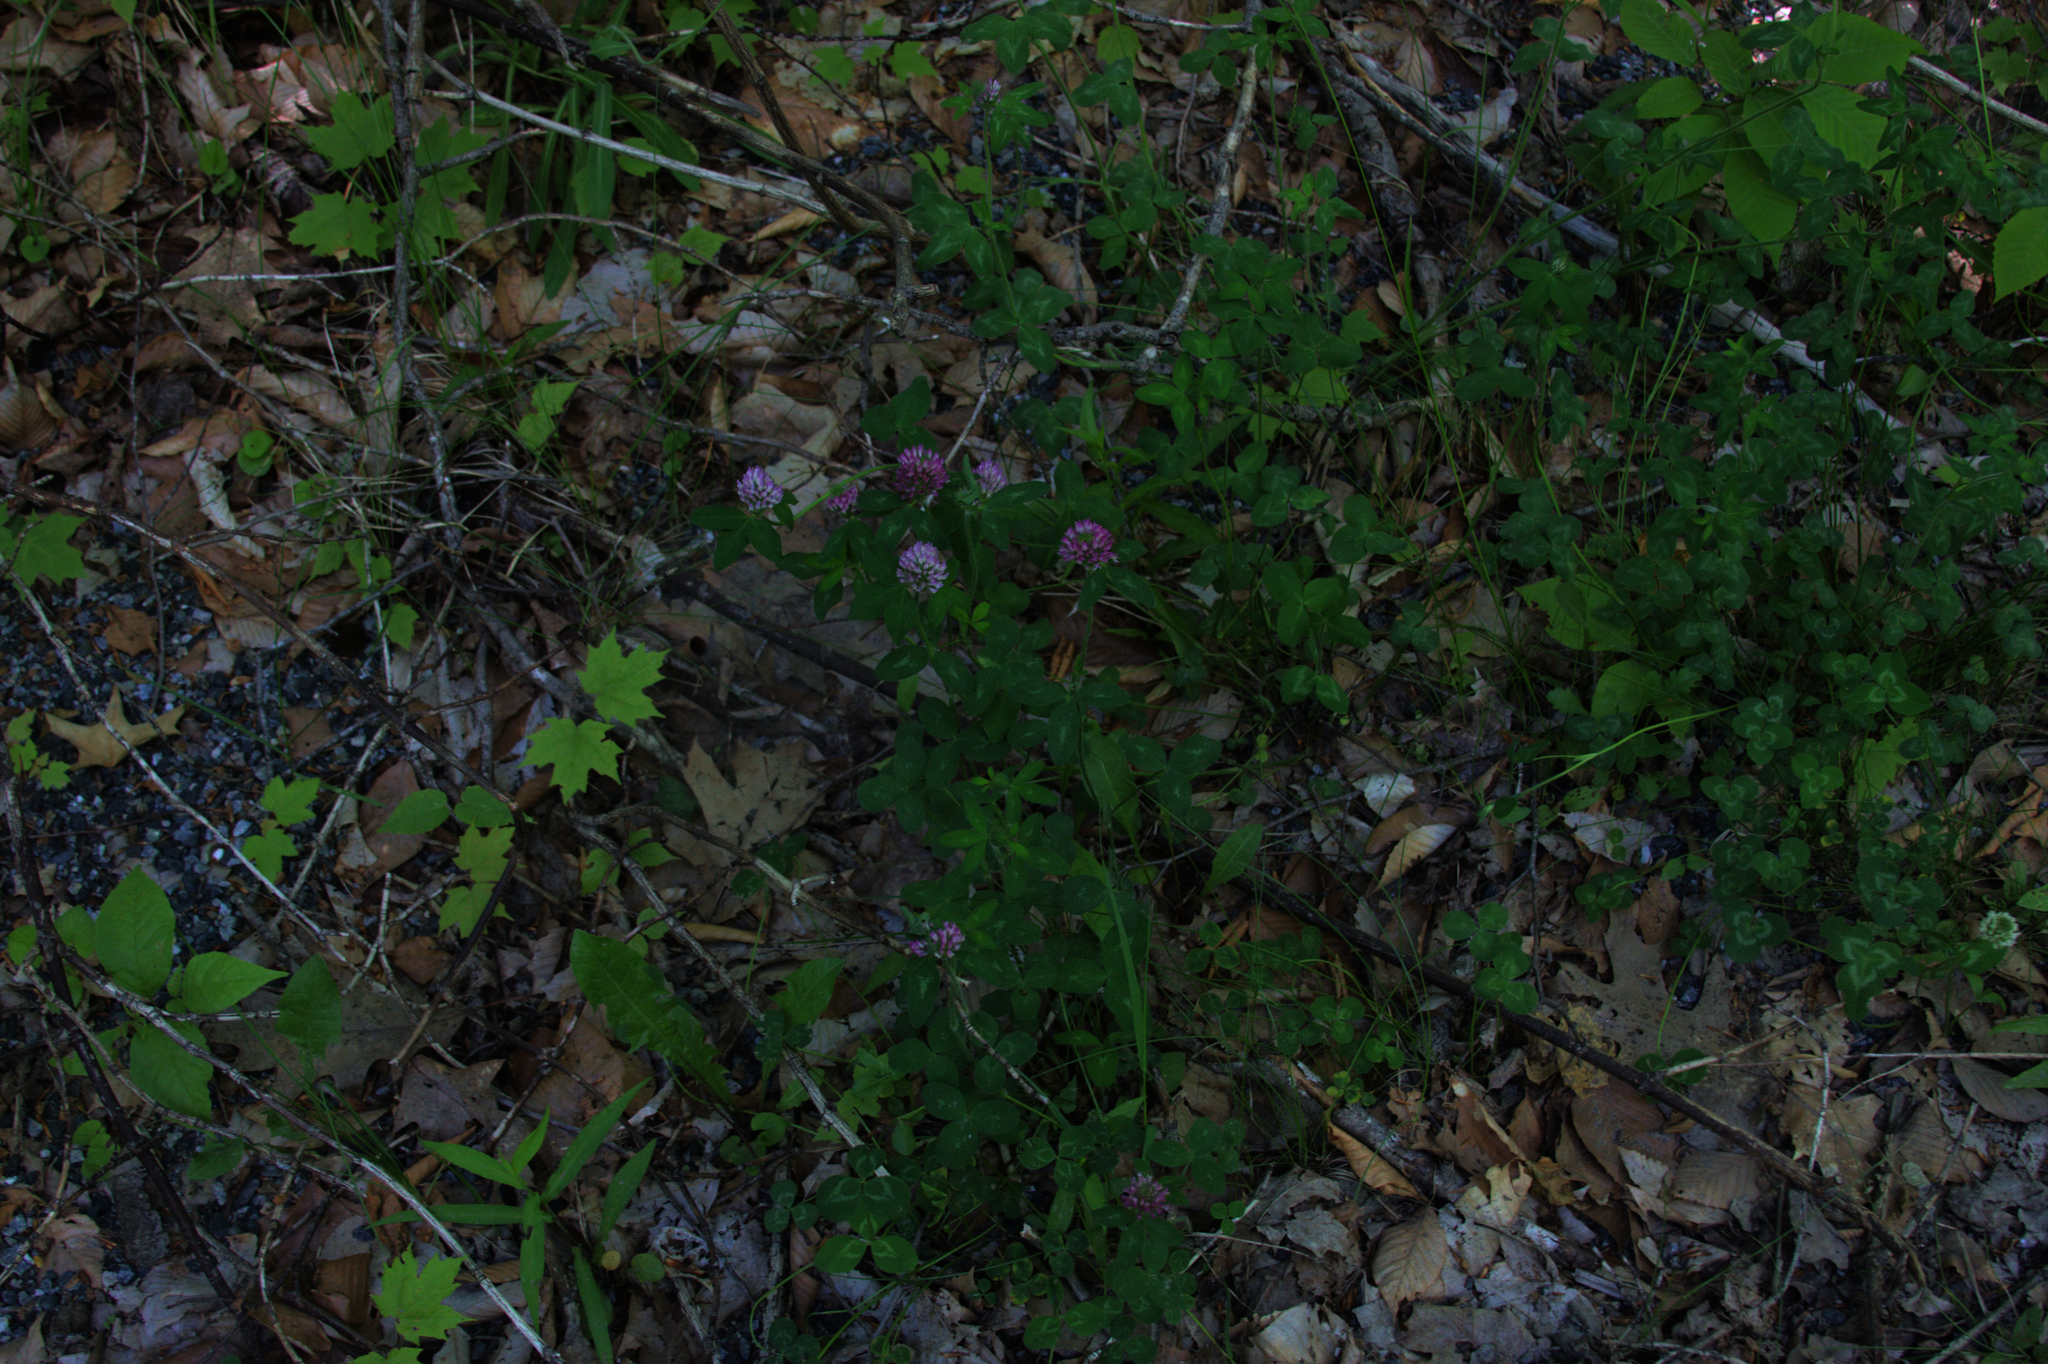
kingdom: Plantae
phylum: Tracheophyta
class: Magnoliopsida
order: Fabales
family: Fabaceae
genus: Trifolium
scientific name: Trifolium pratense
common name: Red clover
